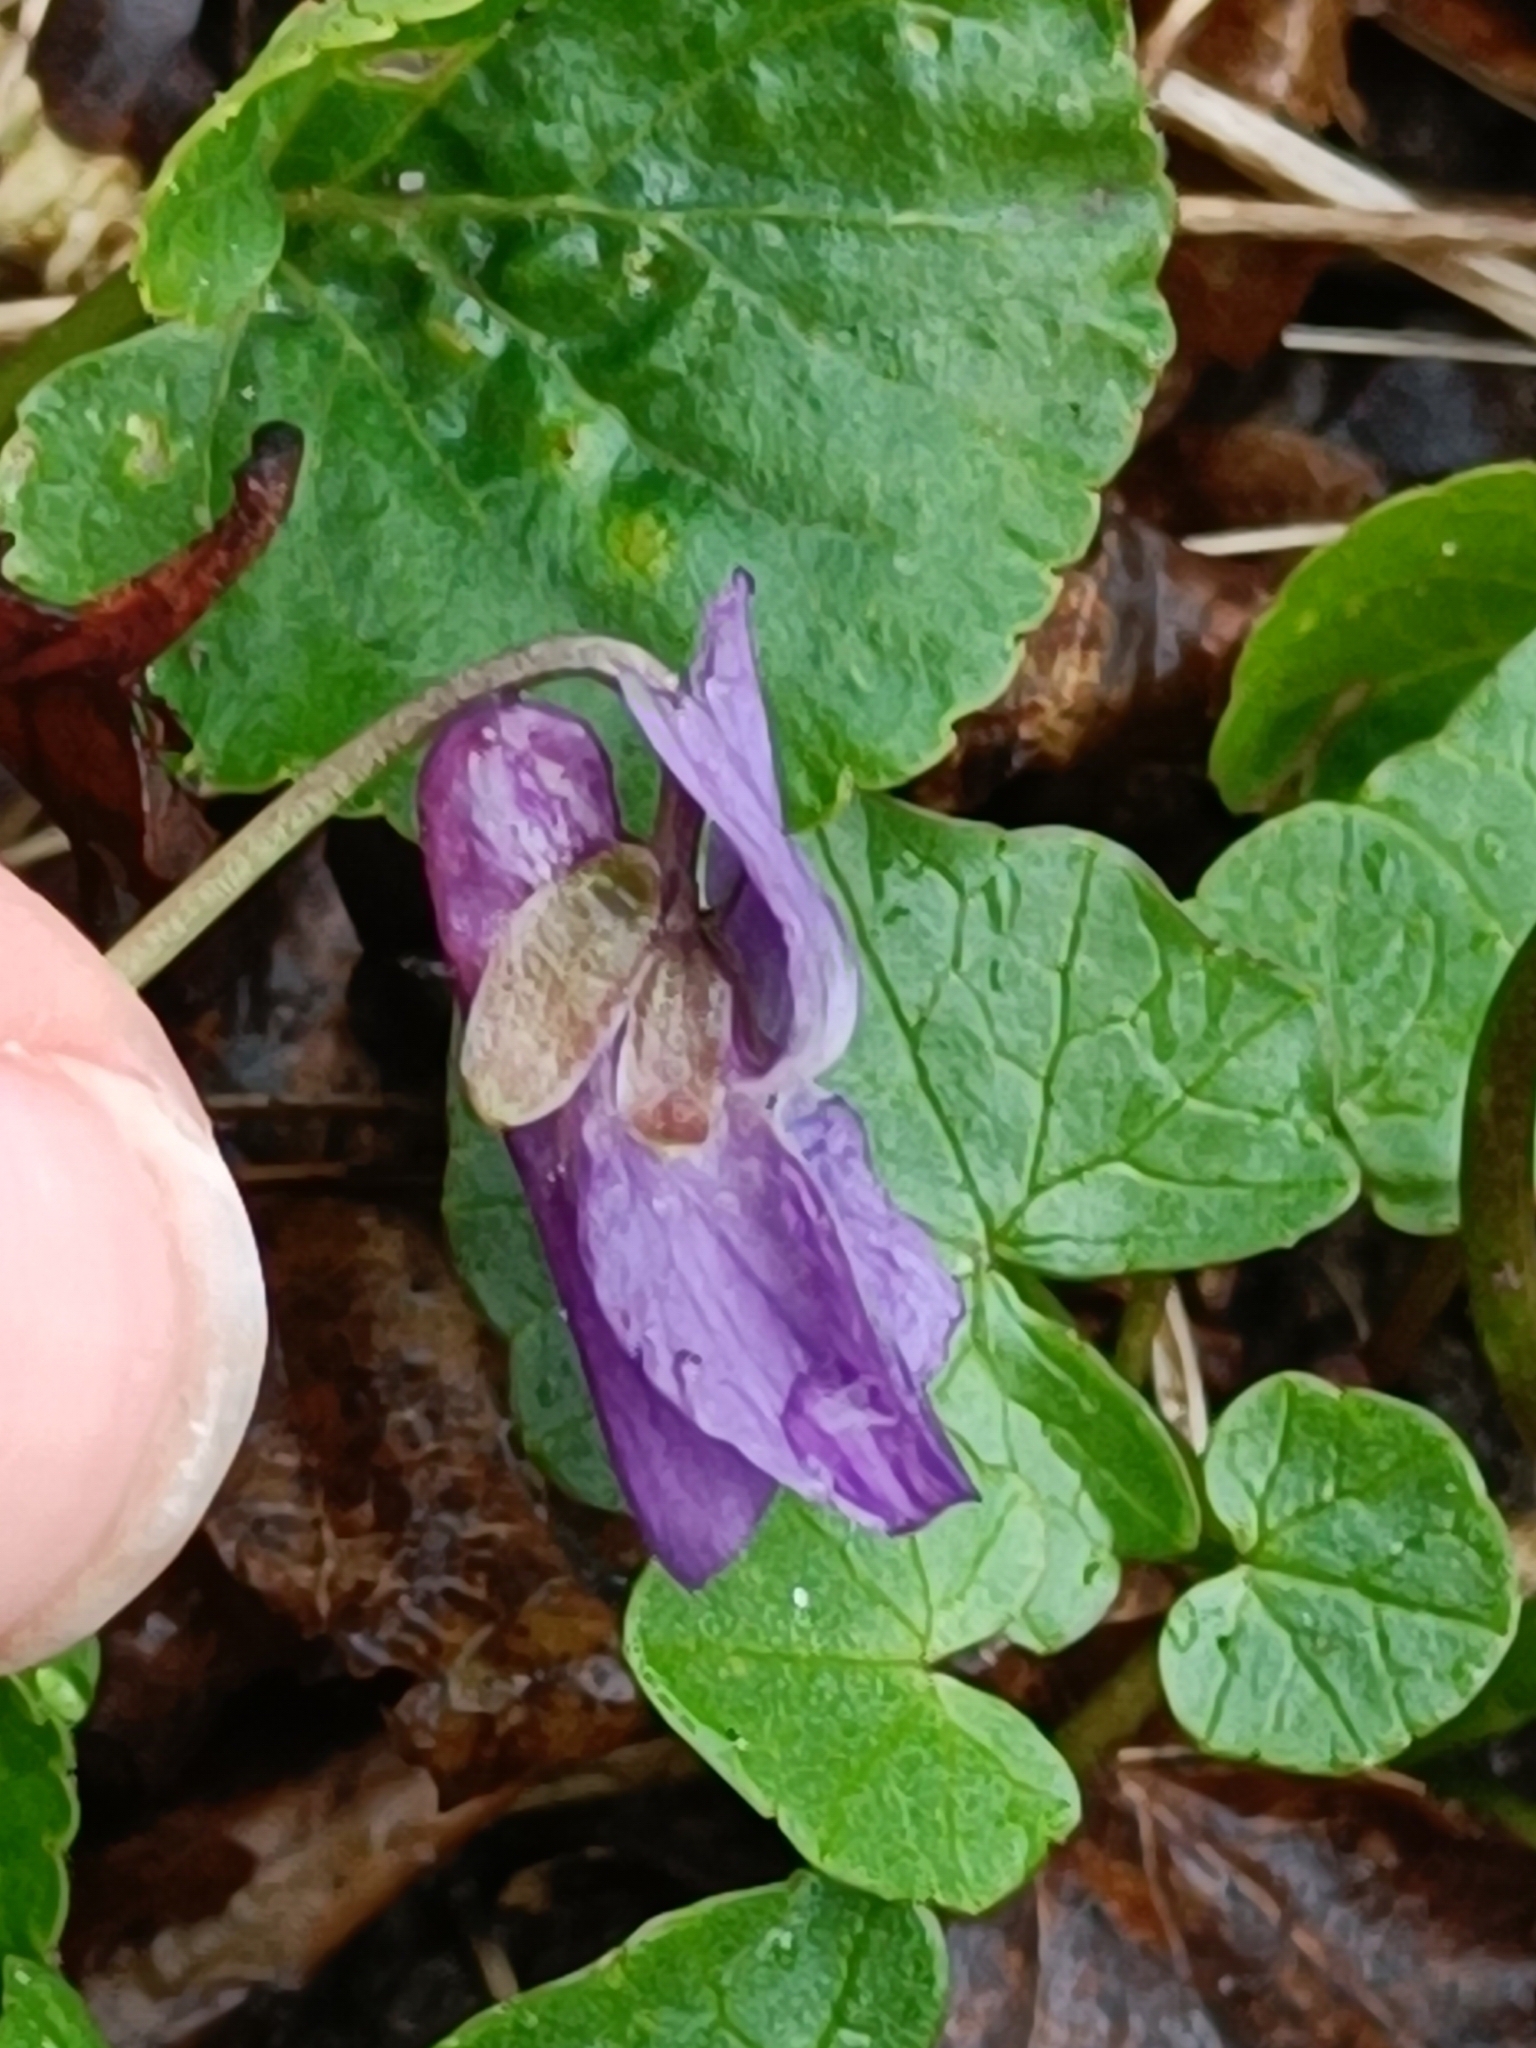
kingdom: Plantae
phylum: Tracheophyta
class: Magnoliopsida
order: Malpighiales
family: Violaceae
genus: Viola
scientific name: Viola odorata
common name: Sweet violet
